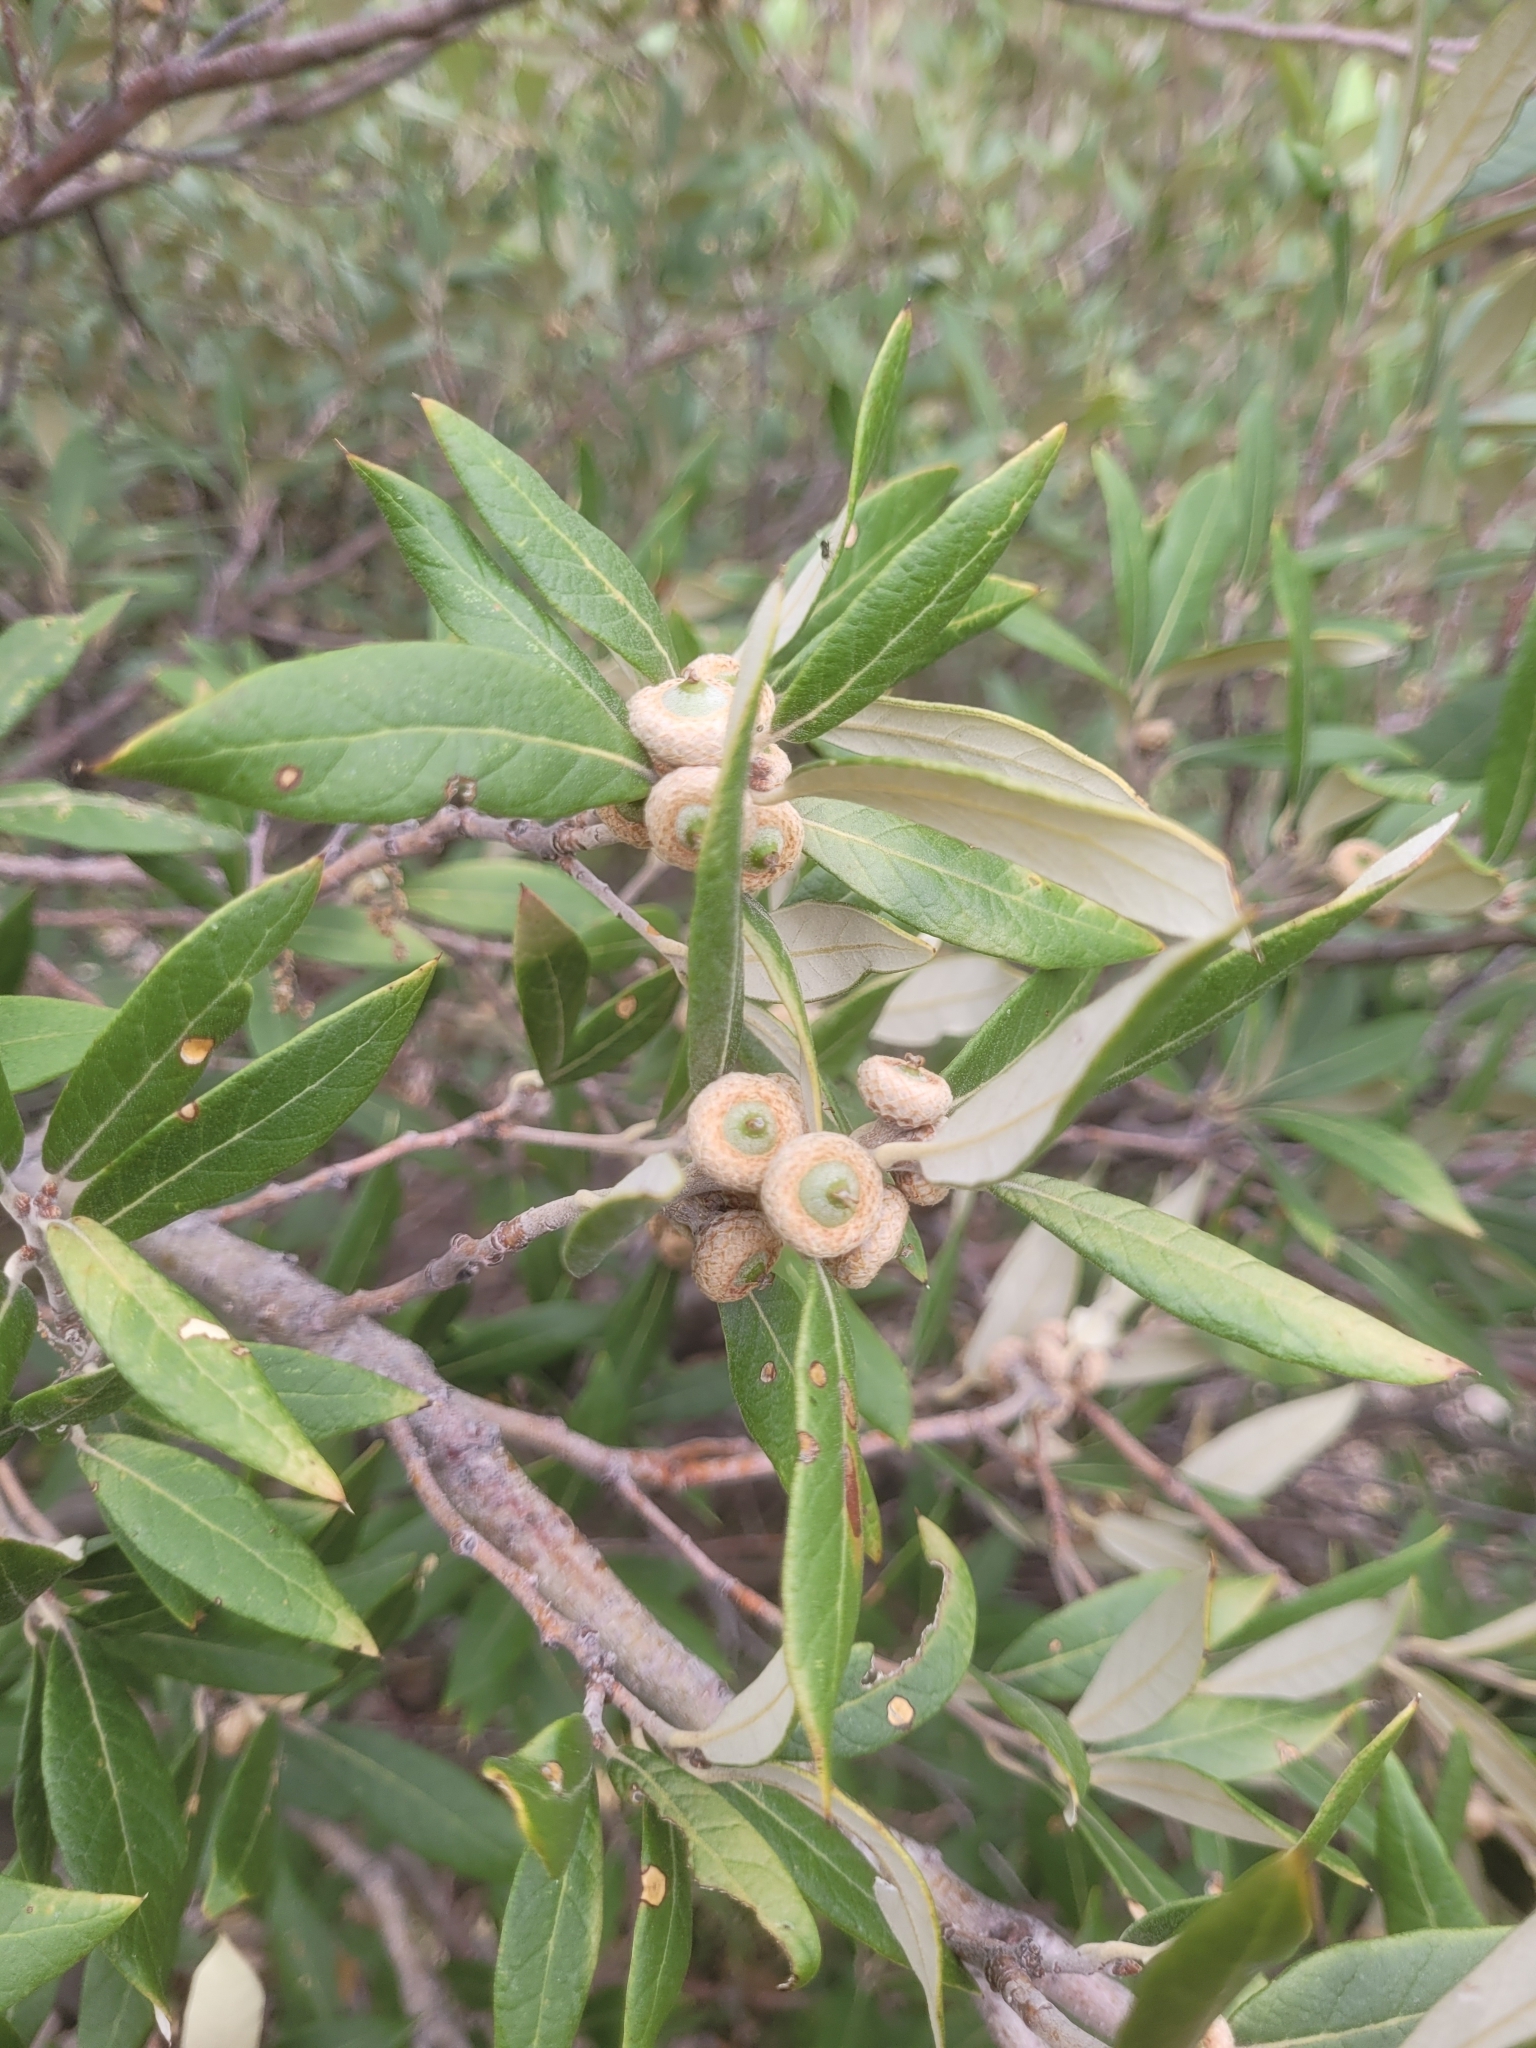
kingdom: Plantae
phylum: Tracheophyta
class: Magnoliopsida
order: Fagales
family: Fagaceae
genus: Quercus
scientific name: Quercus hypoleucoides
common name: Silverleaf oak
